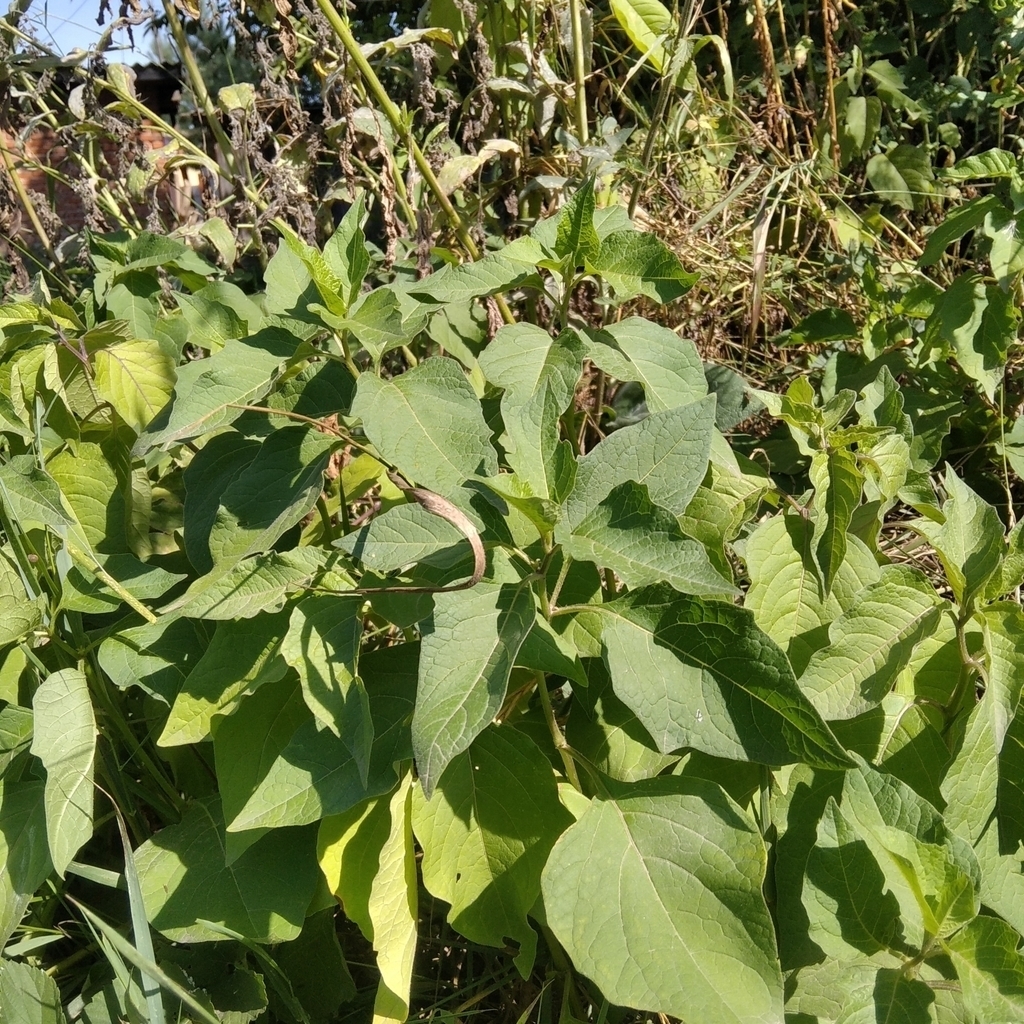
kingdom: Plantae
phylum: Tracheophyta
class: Magnoliopsida
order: Solanales
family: Solanaceae
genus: Alkekengi
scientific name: Alkekengi officinarum
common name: Japanese-lantern
